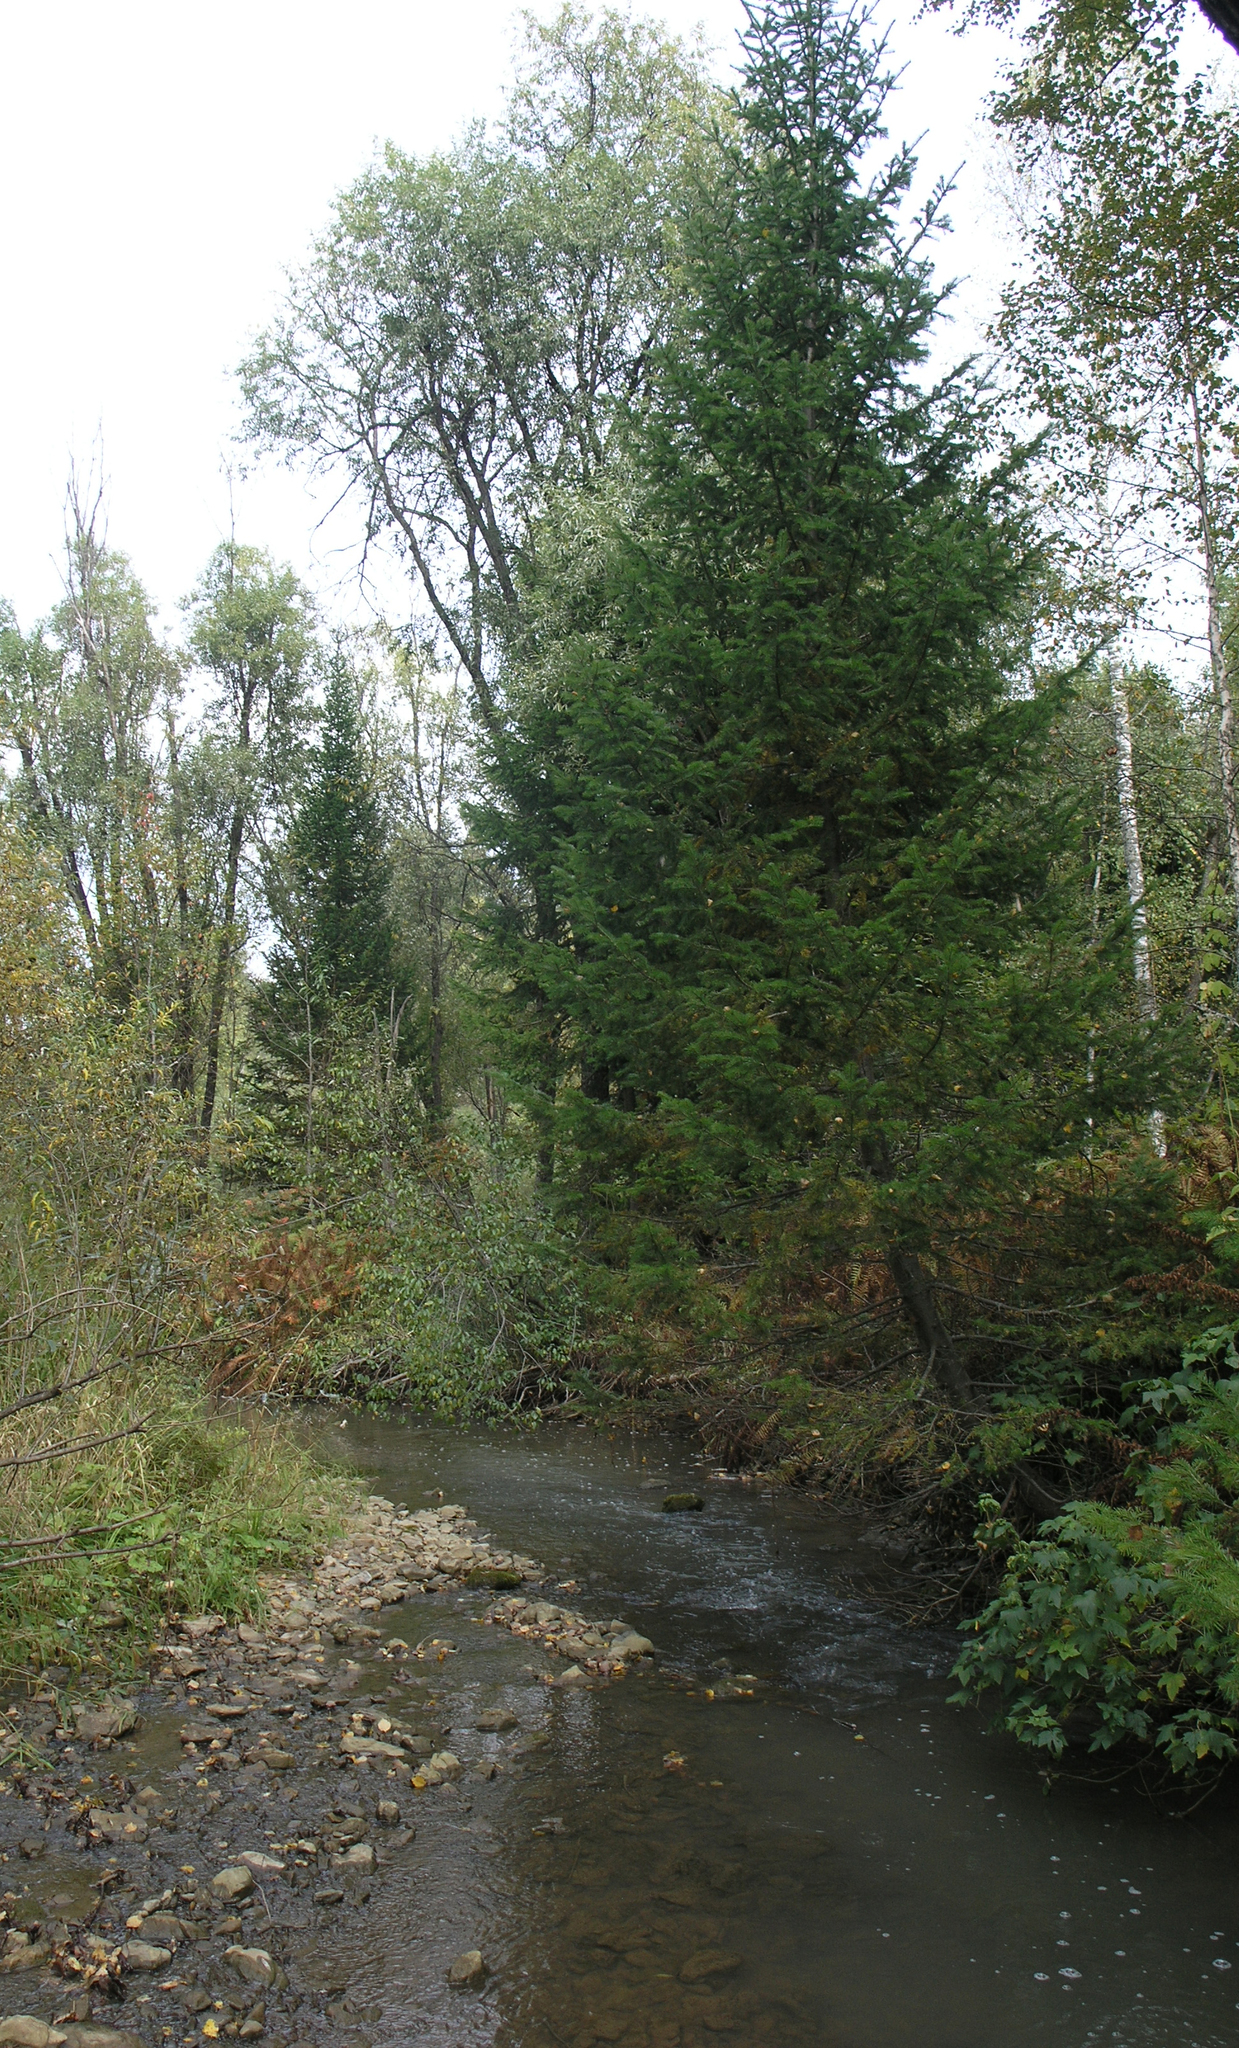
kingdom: Plantae
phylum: Tracheophyta
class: Pinopsida
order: Pinales
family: Pinaceae
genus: Abies
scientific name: Abies sibirica
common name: Siberian fir
